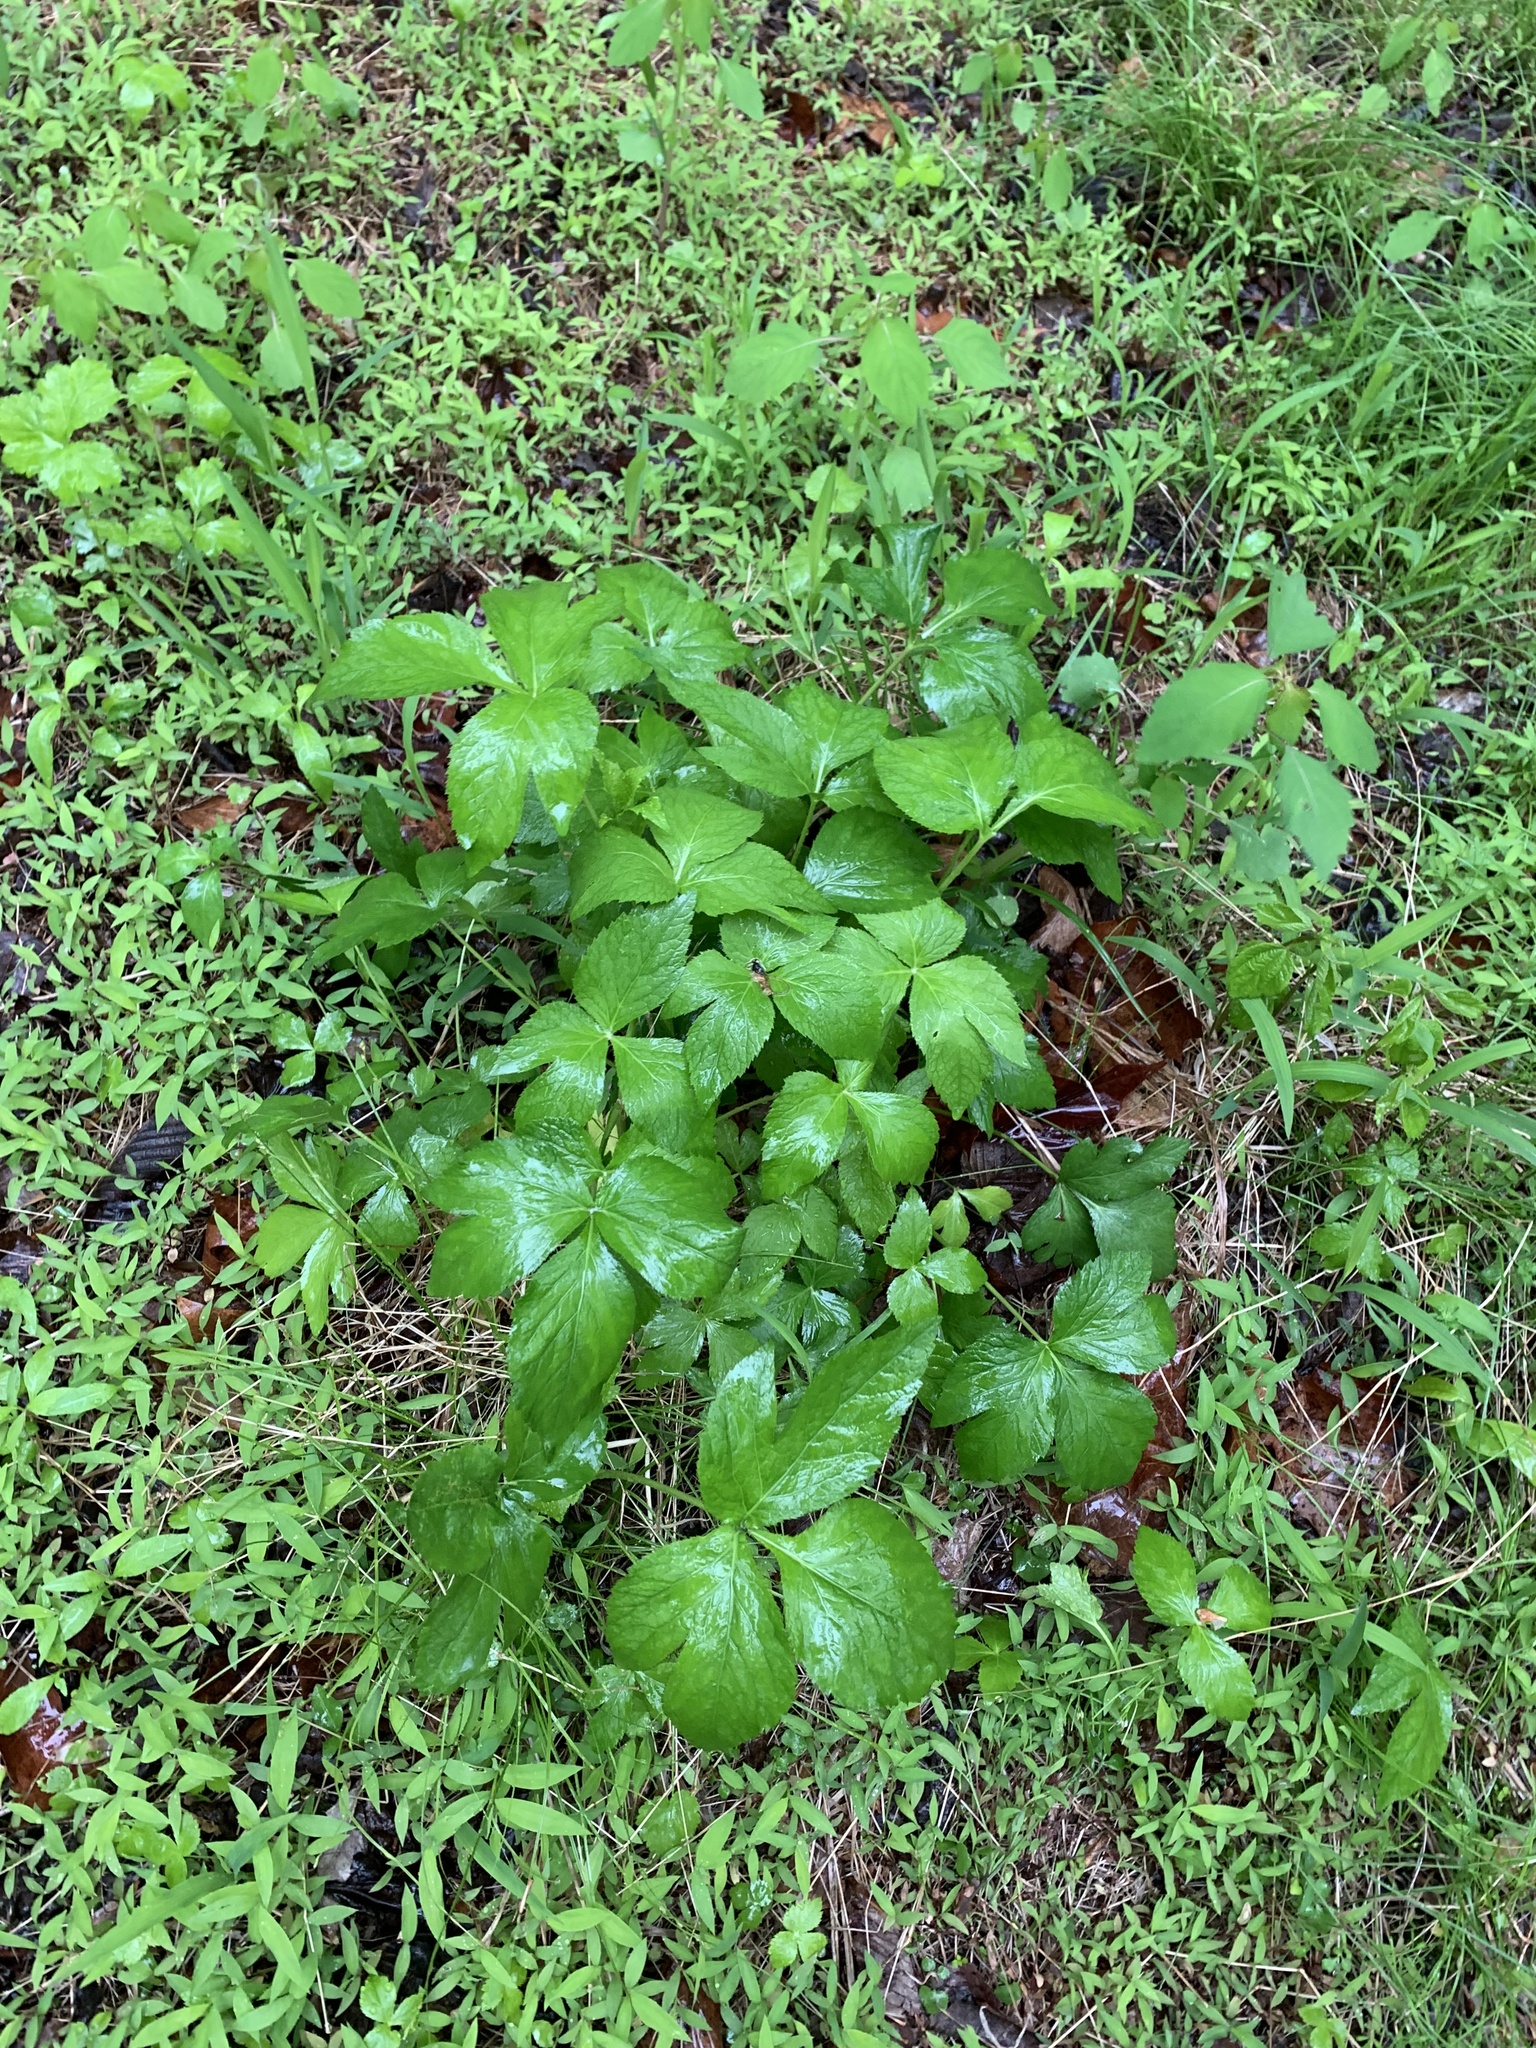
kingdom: Plantae
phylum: Tracheophyta
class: Magnoliopsida
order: Apiales
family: Apiaceae
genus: Cryptotaenia
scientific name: Cryptotaenia canadensis
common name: Honewort
